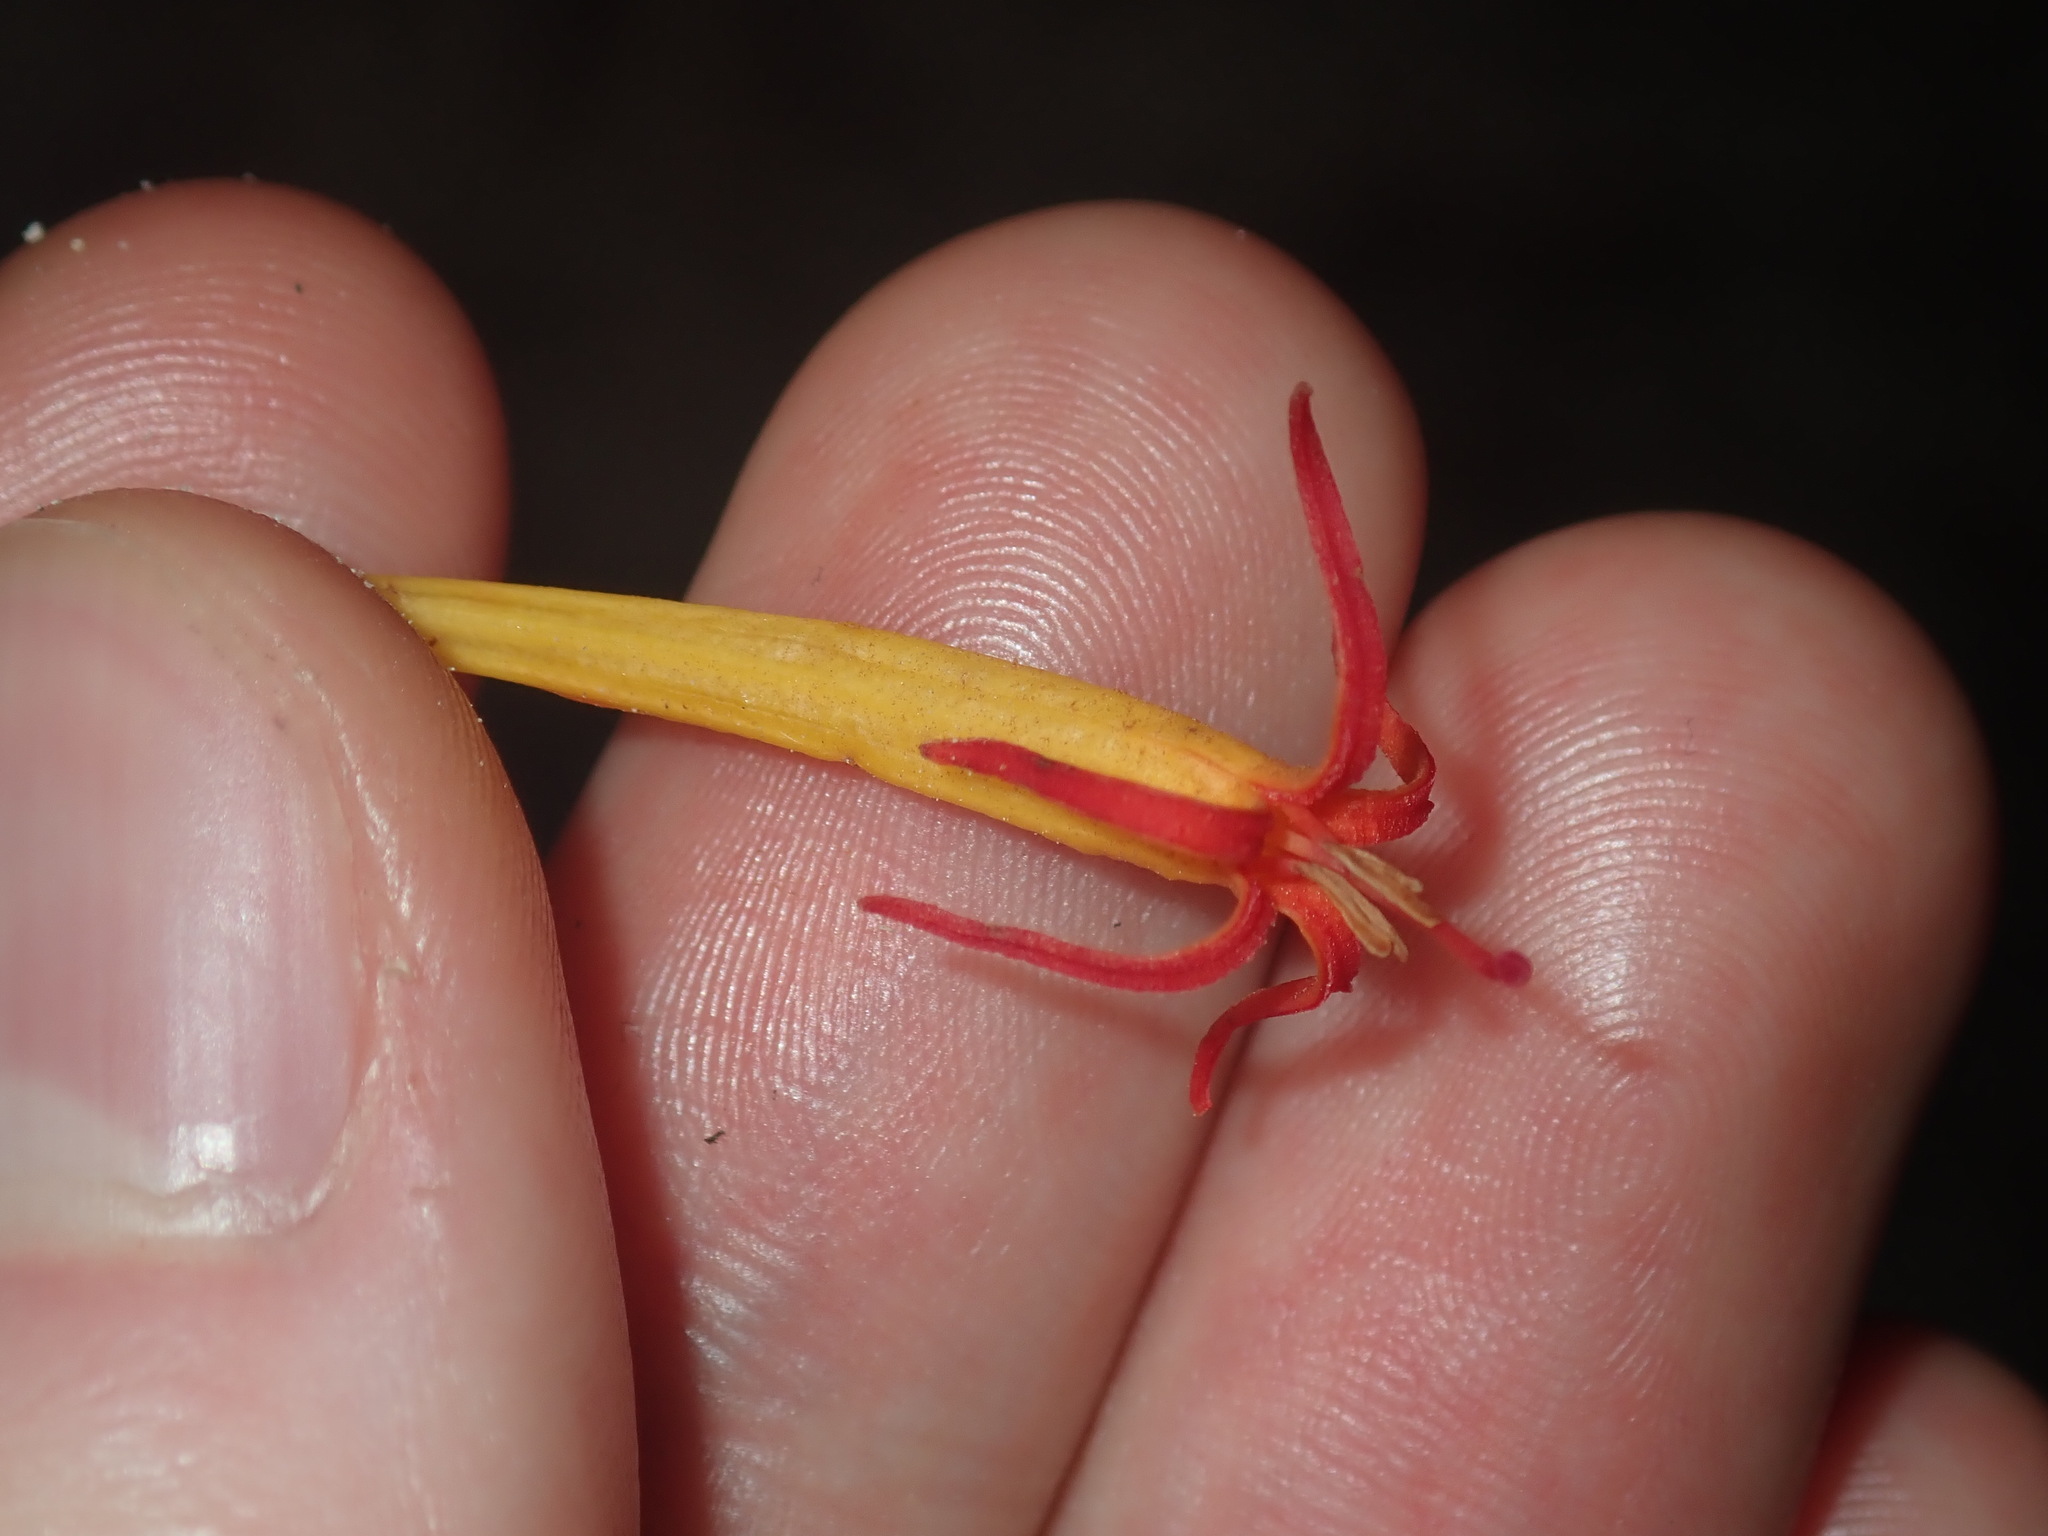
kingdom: Plantae
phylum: Tracheophyta
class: Magnoliopsida
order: Santalales
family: Loranthaceae
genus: Dendrophthoe
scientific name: Dendrophthoe vitellina
